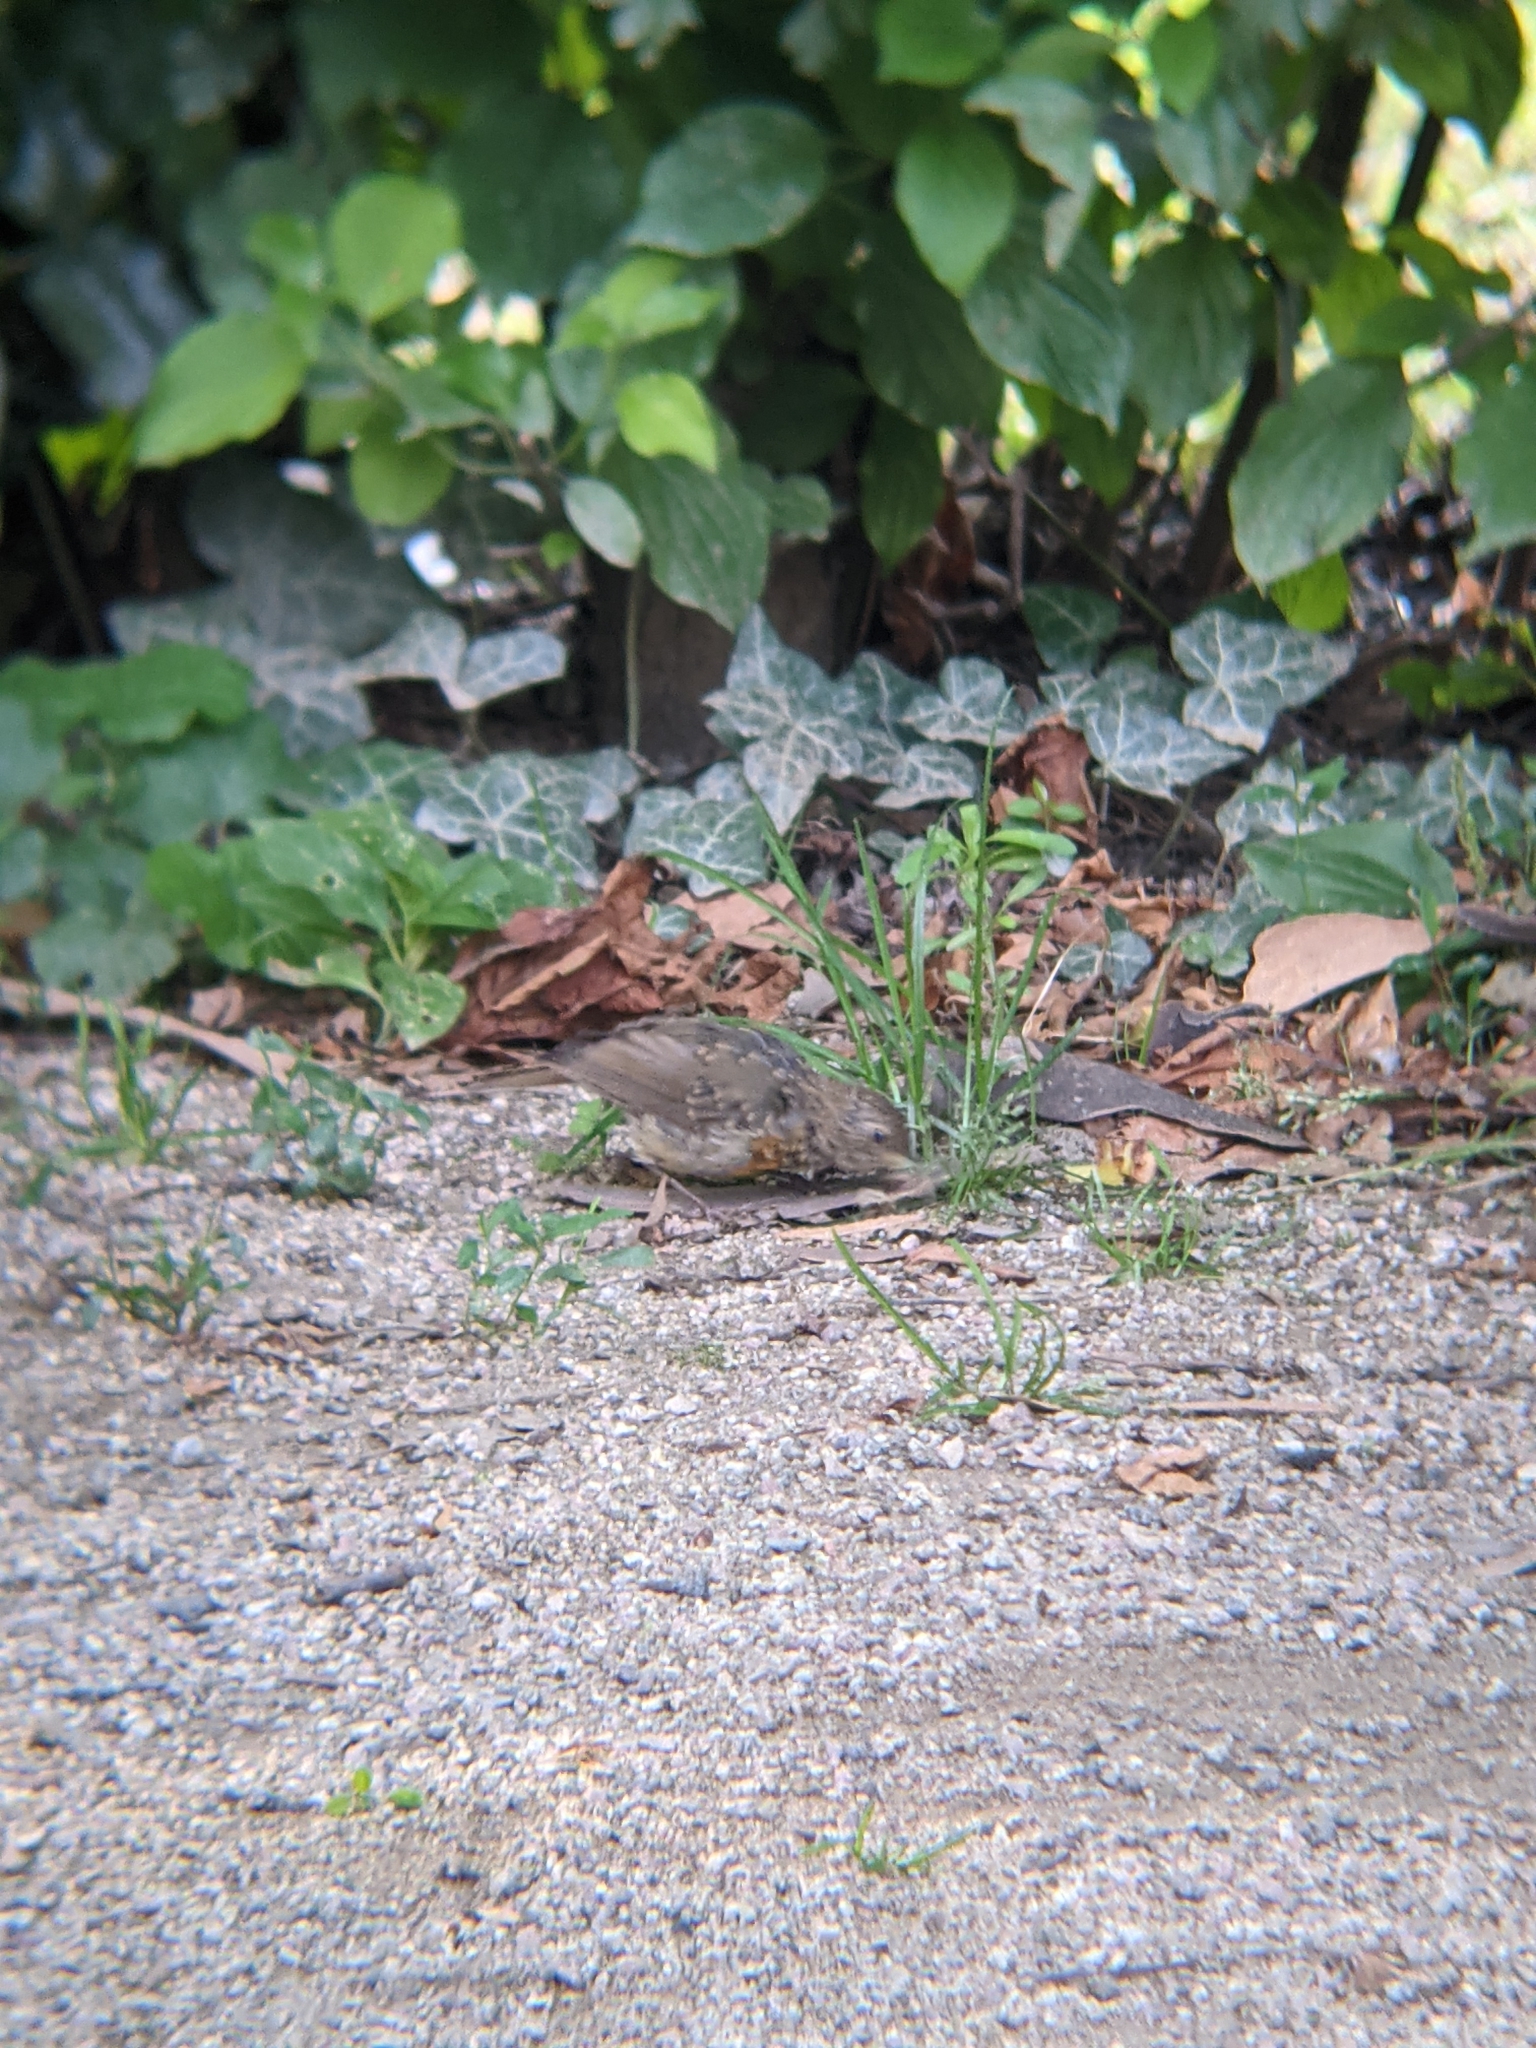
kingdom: Animalia
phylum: Chordata
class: Aves
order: Passeriformes
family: Muscicapidae
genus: Erithacus
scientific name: Erithacus rubecula
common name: European robin
